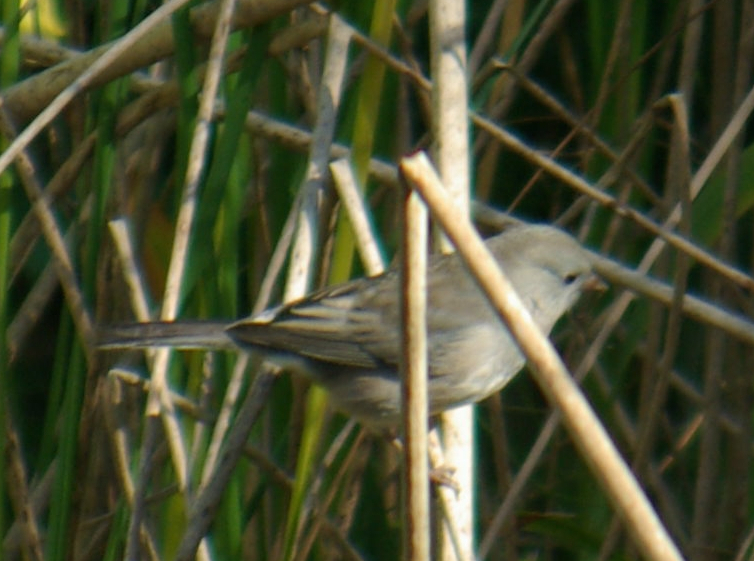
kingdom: Animalia
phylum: Chordata
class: Aves
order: Passeriformes
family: Passerellidae
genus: Junco
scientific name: Junco hyemalis
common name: Dark-eyed junco
